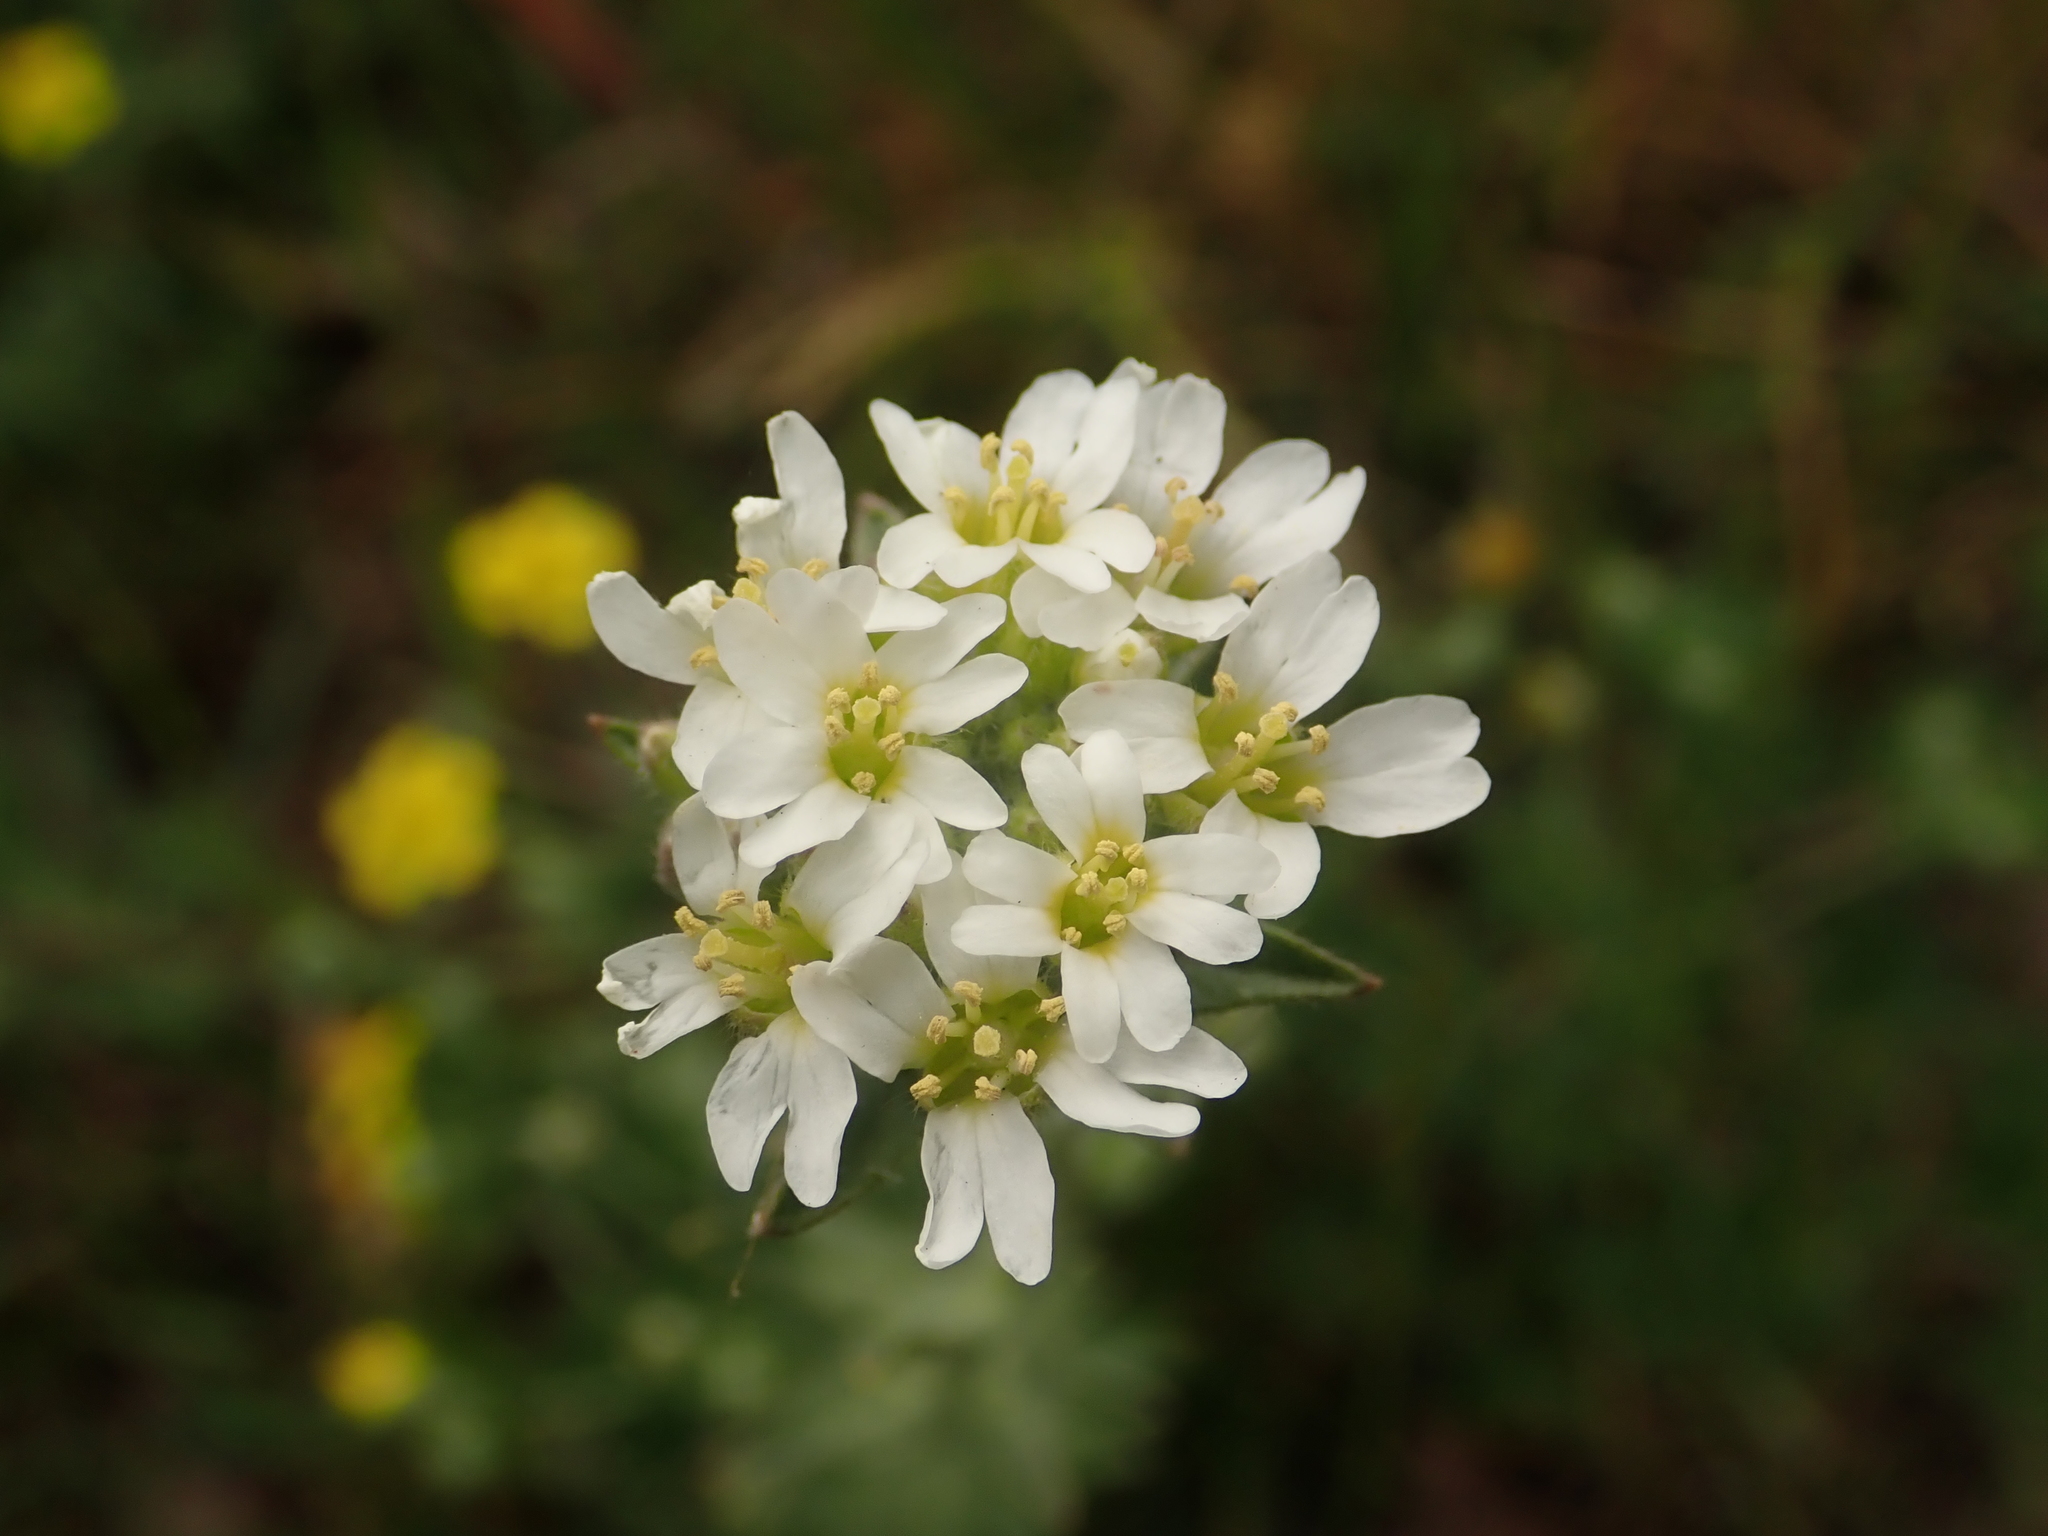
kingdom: Plantae
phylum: Tracheophyta
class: Magnoliopsida
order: Brassicales
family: Brassicaceae
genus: Berteroa
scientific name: Berteroa incana
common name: Hoary alison
